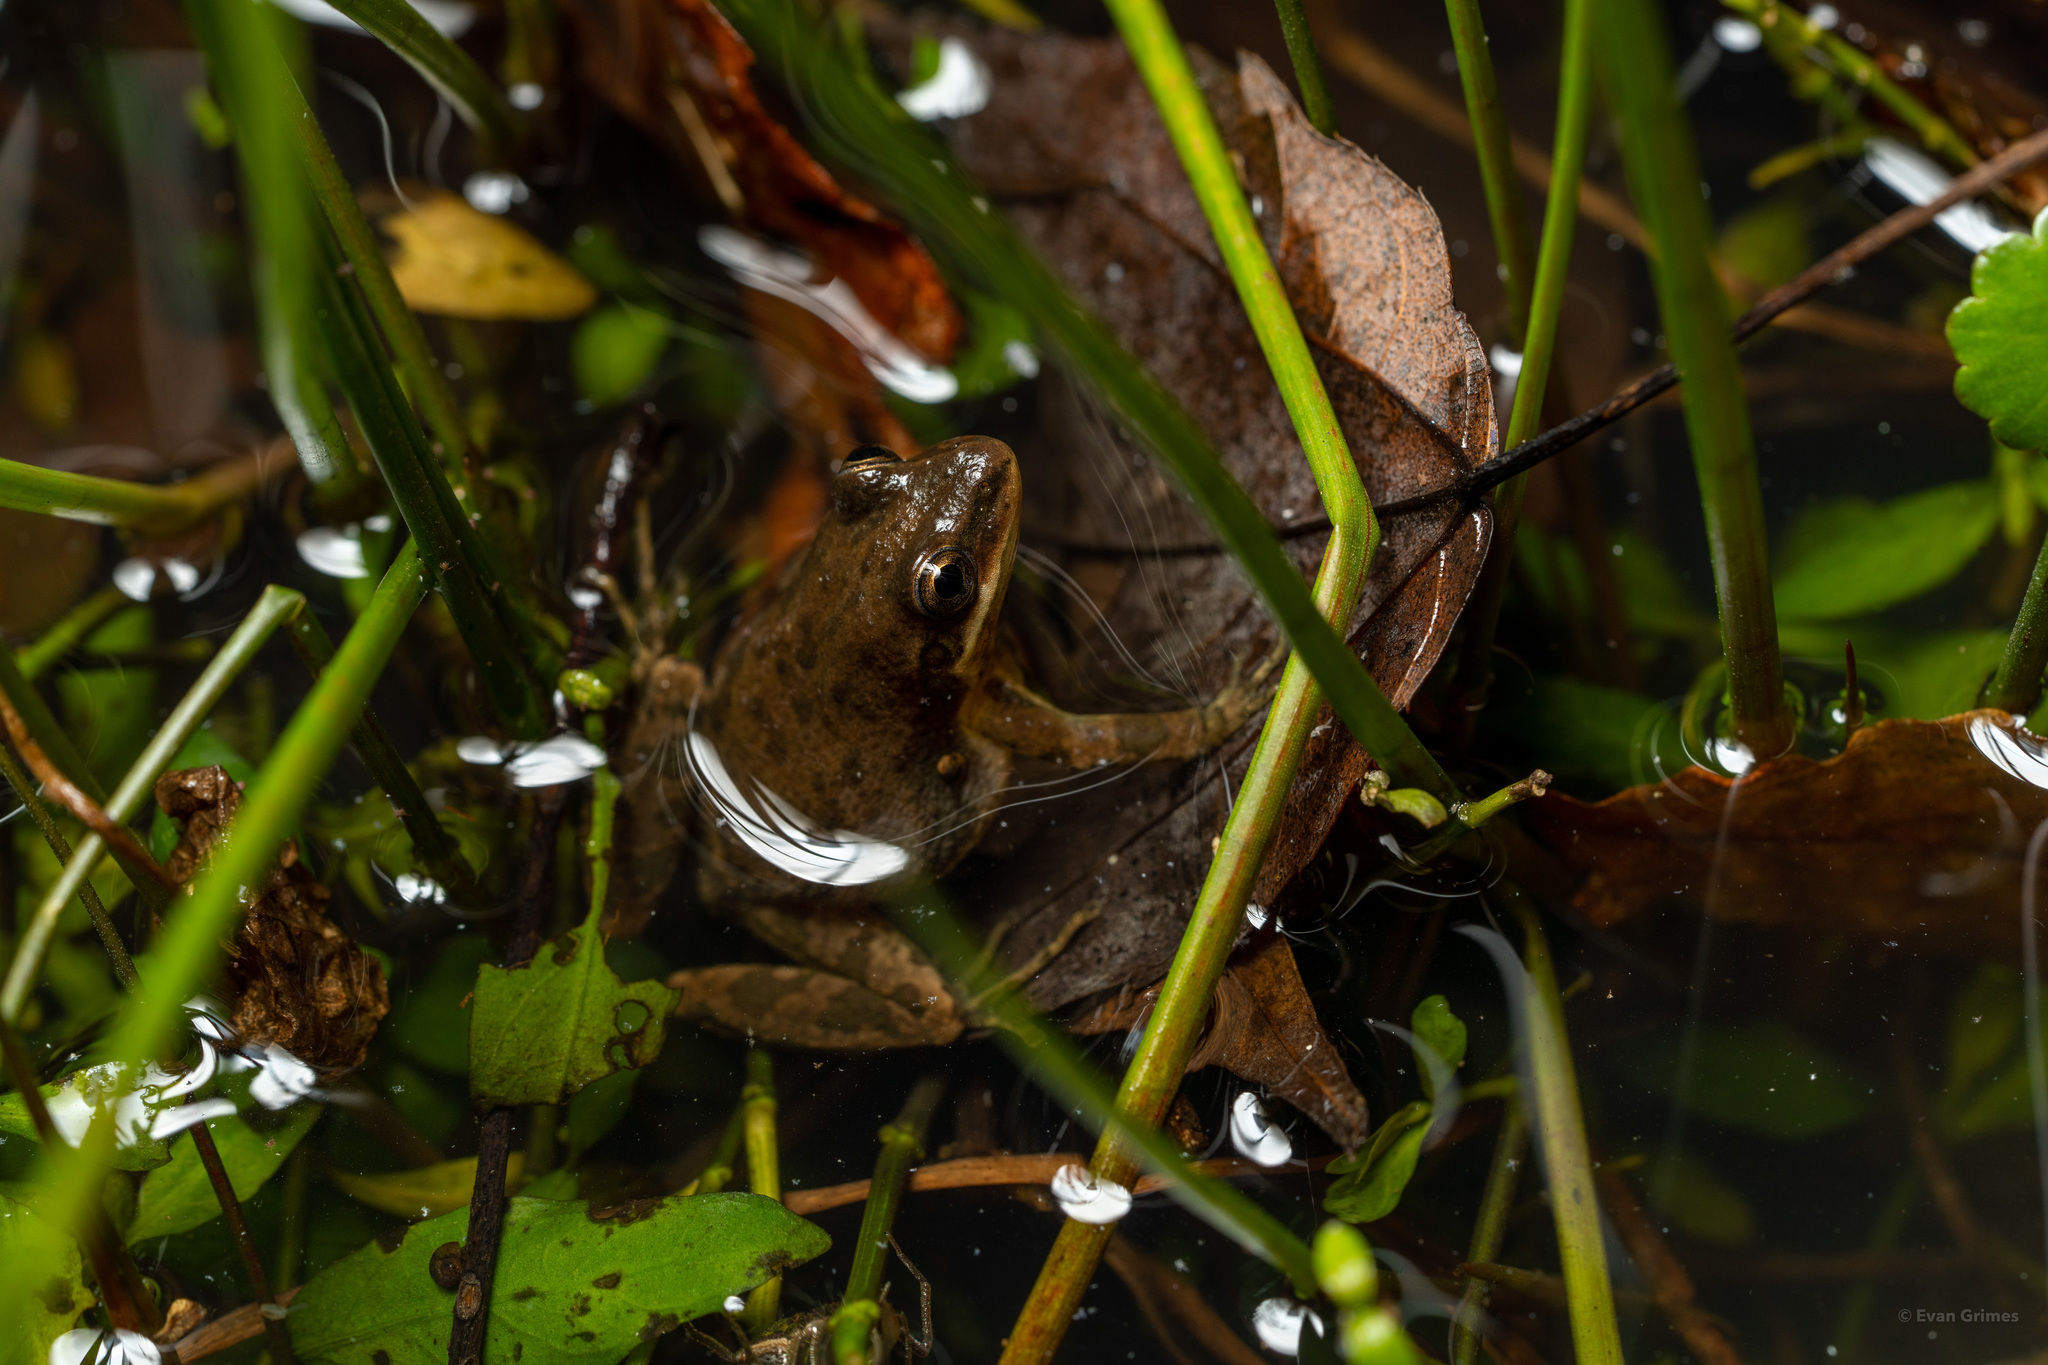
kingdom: Animalia
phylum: Chordata
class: Amphibia
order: Anura
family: Hylidae
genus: Pseudacris
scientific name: Pseudacris fouquettei
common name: Cajun chorus frog
